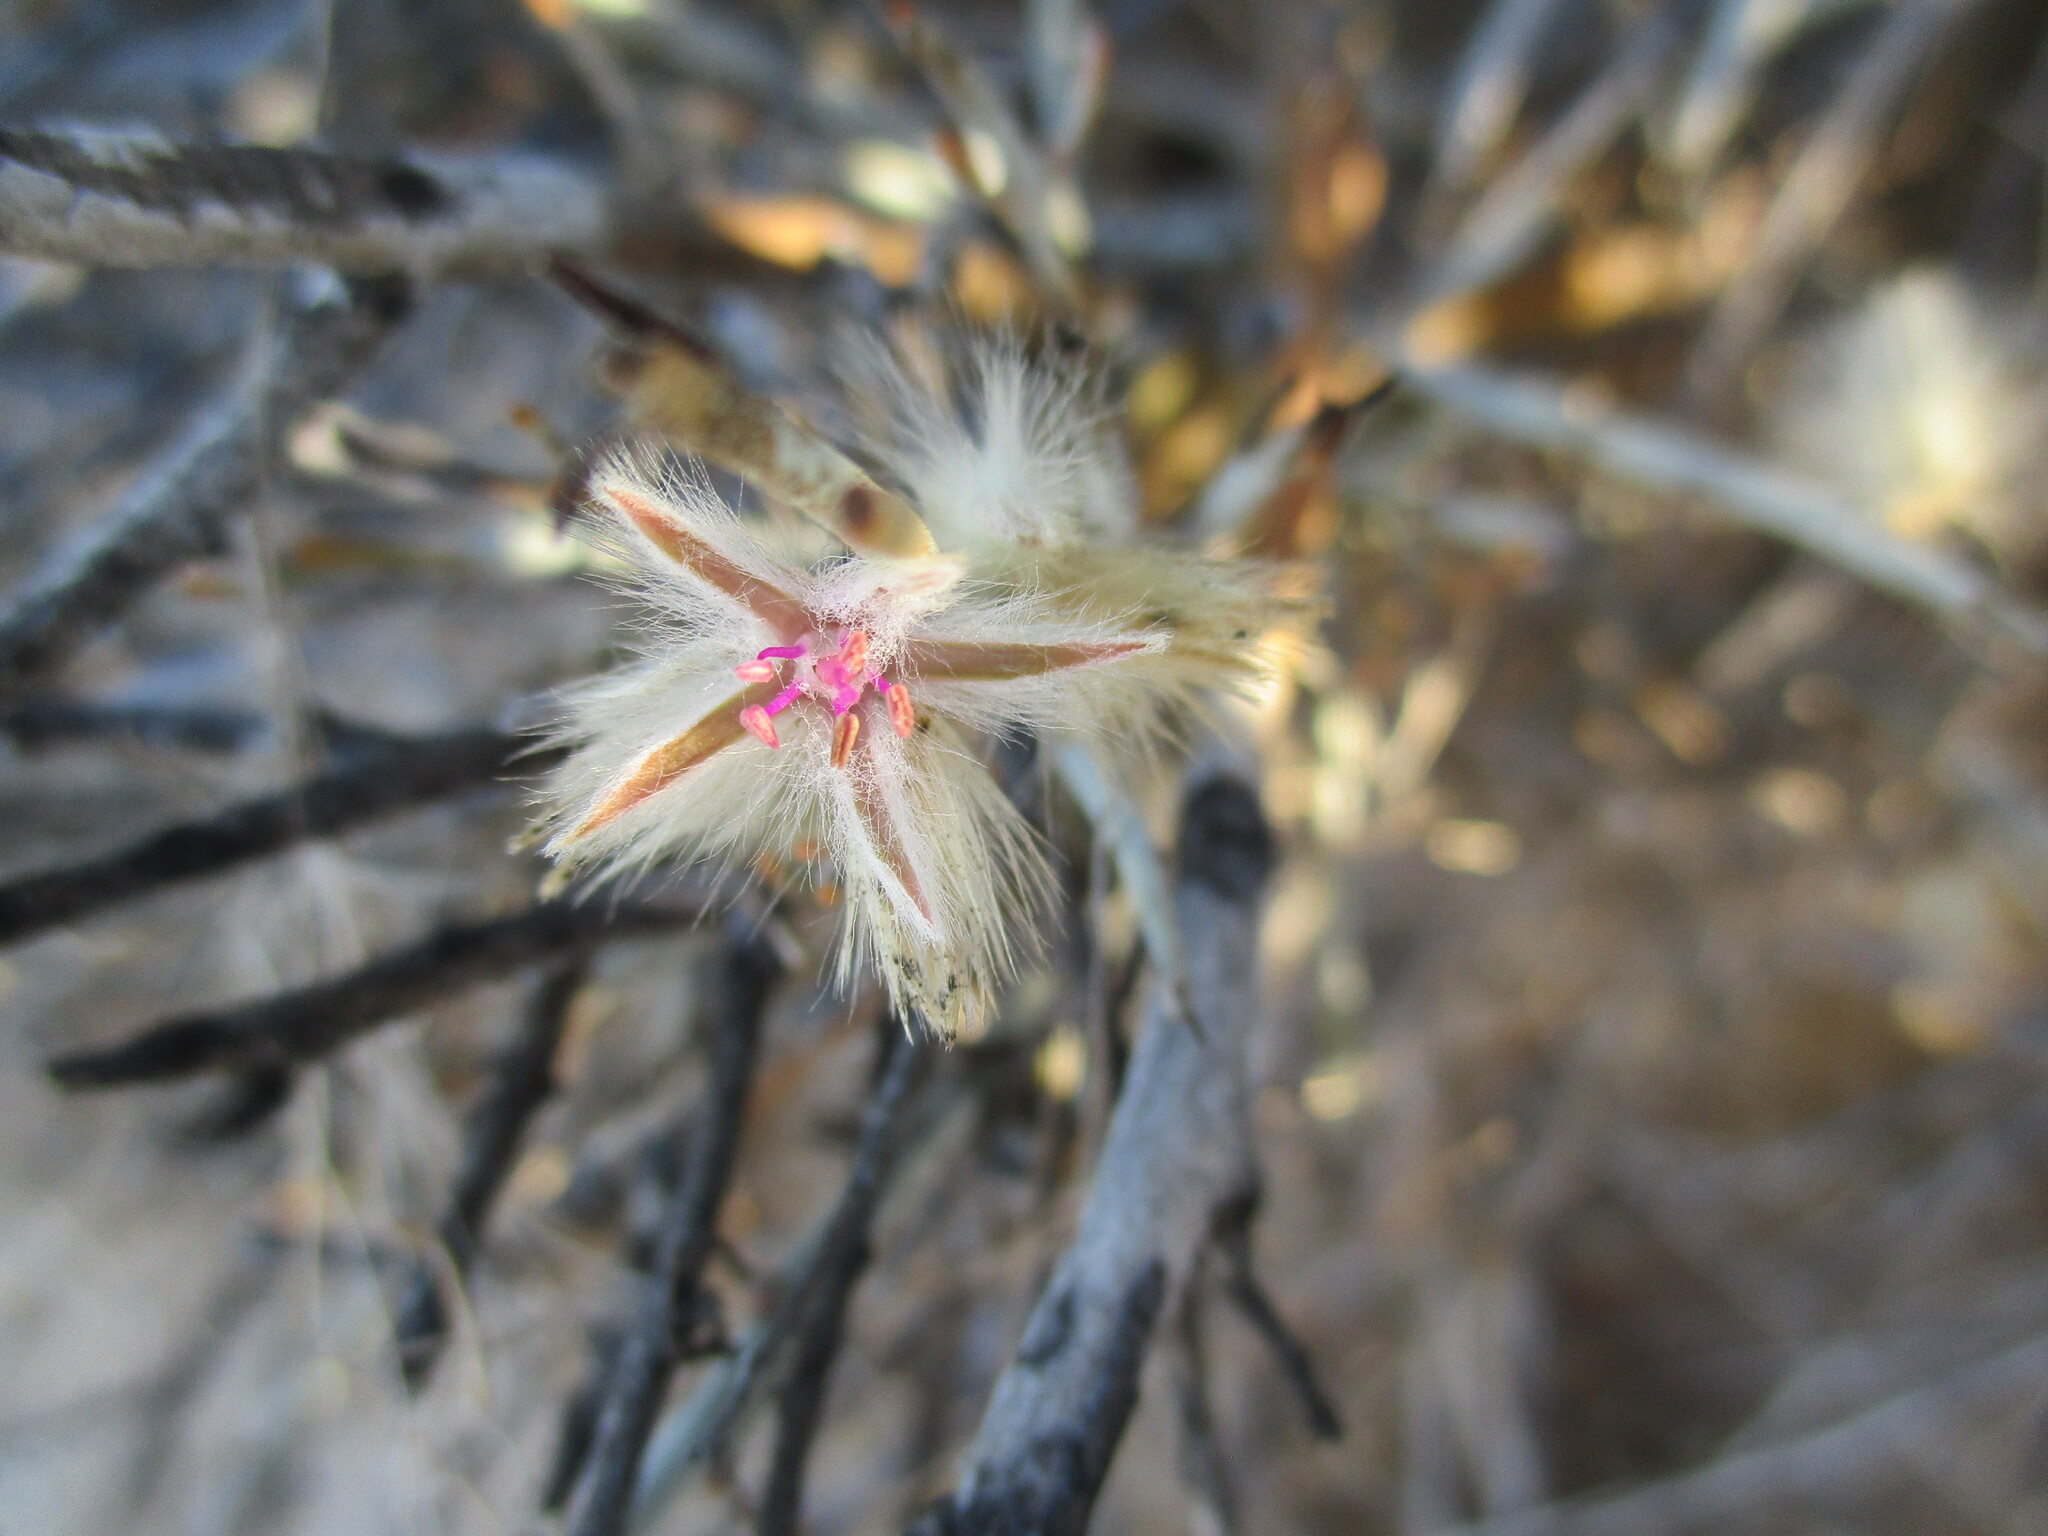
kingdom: Plantae
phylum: Tracheophyta
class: Magnoliopsida
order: Caryophyllales
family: Amaranthaceae
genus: Calicorema
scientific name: Calicorema capitata
